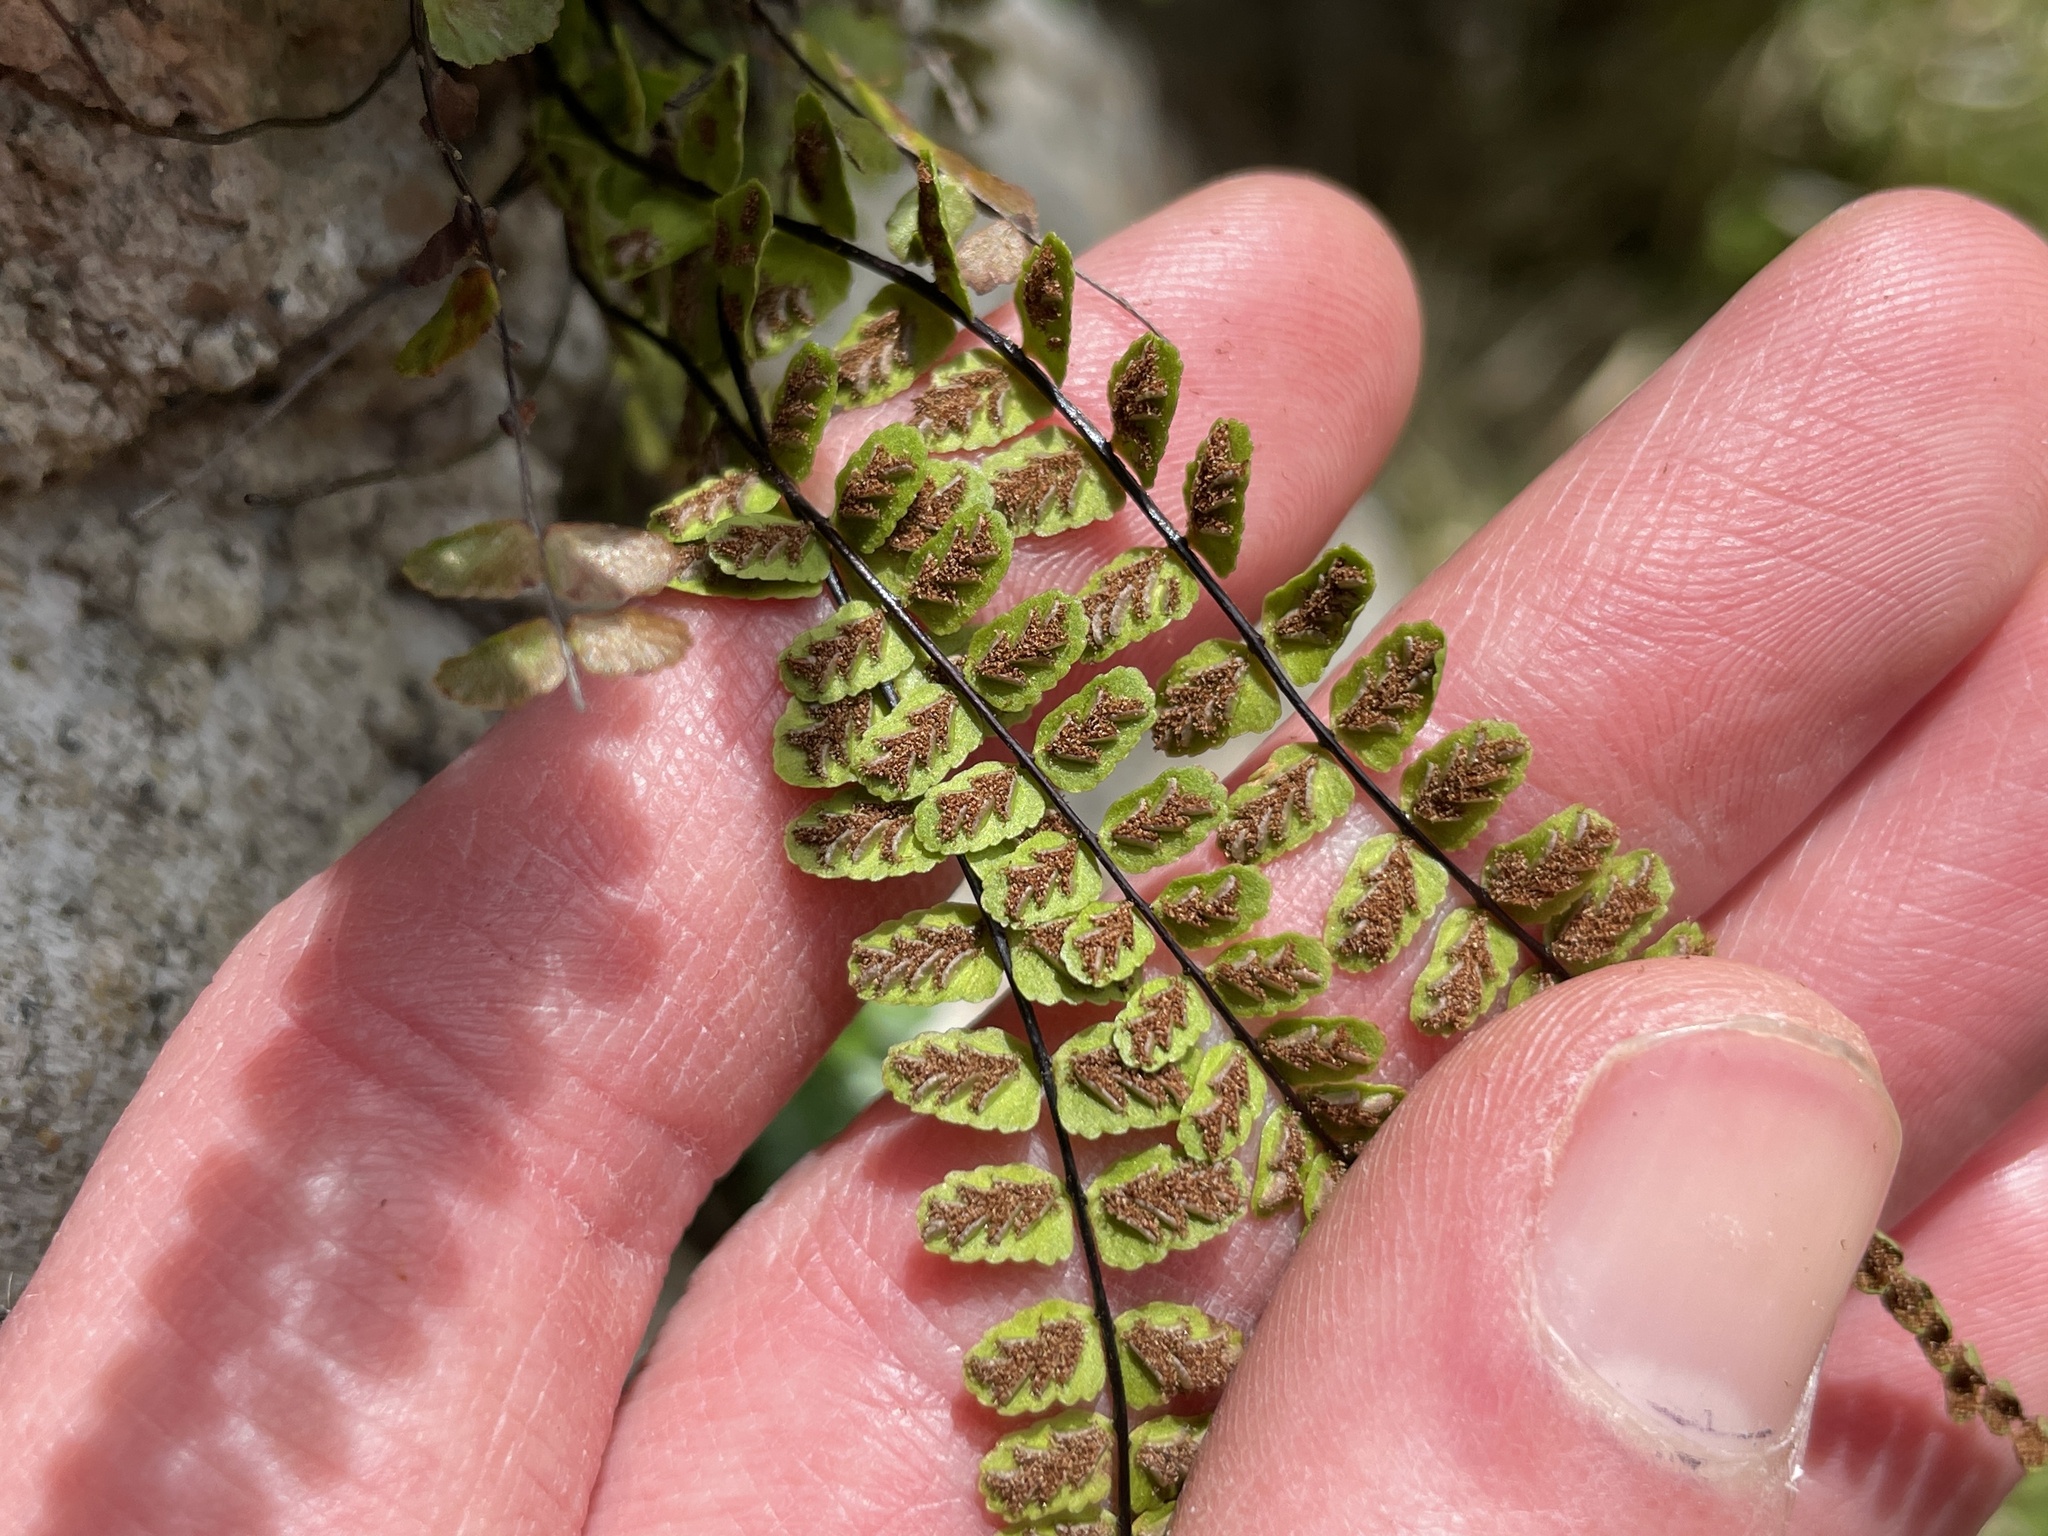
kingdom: Plantae
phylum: Tracheophyta
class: Polypodiopsida
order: Polypodiales
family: Aspleniaceae
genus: Asplenium
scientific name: Asplenium trichomanes
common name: Maidenhair spleenwort
